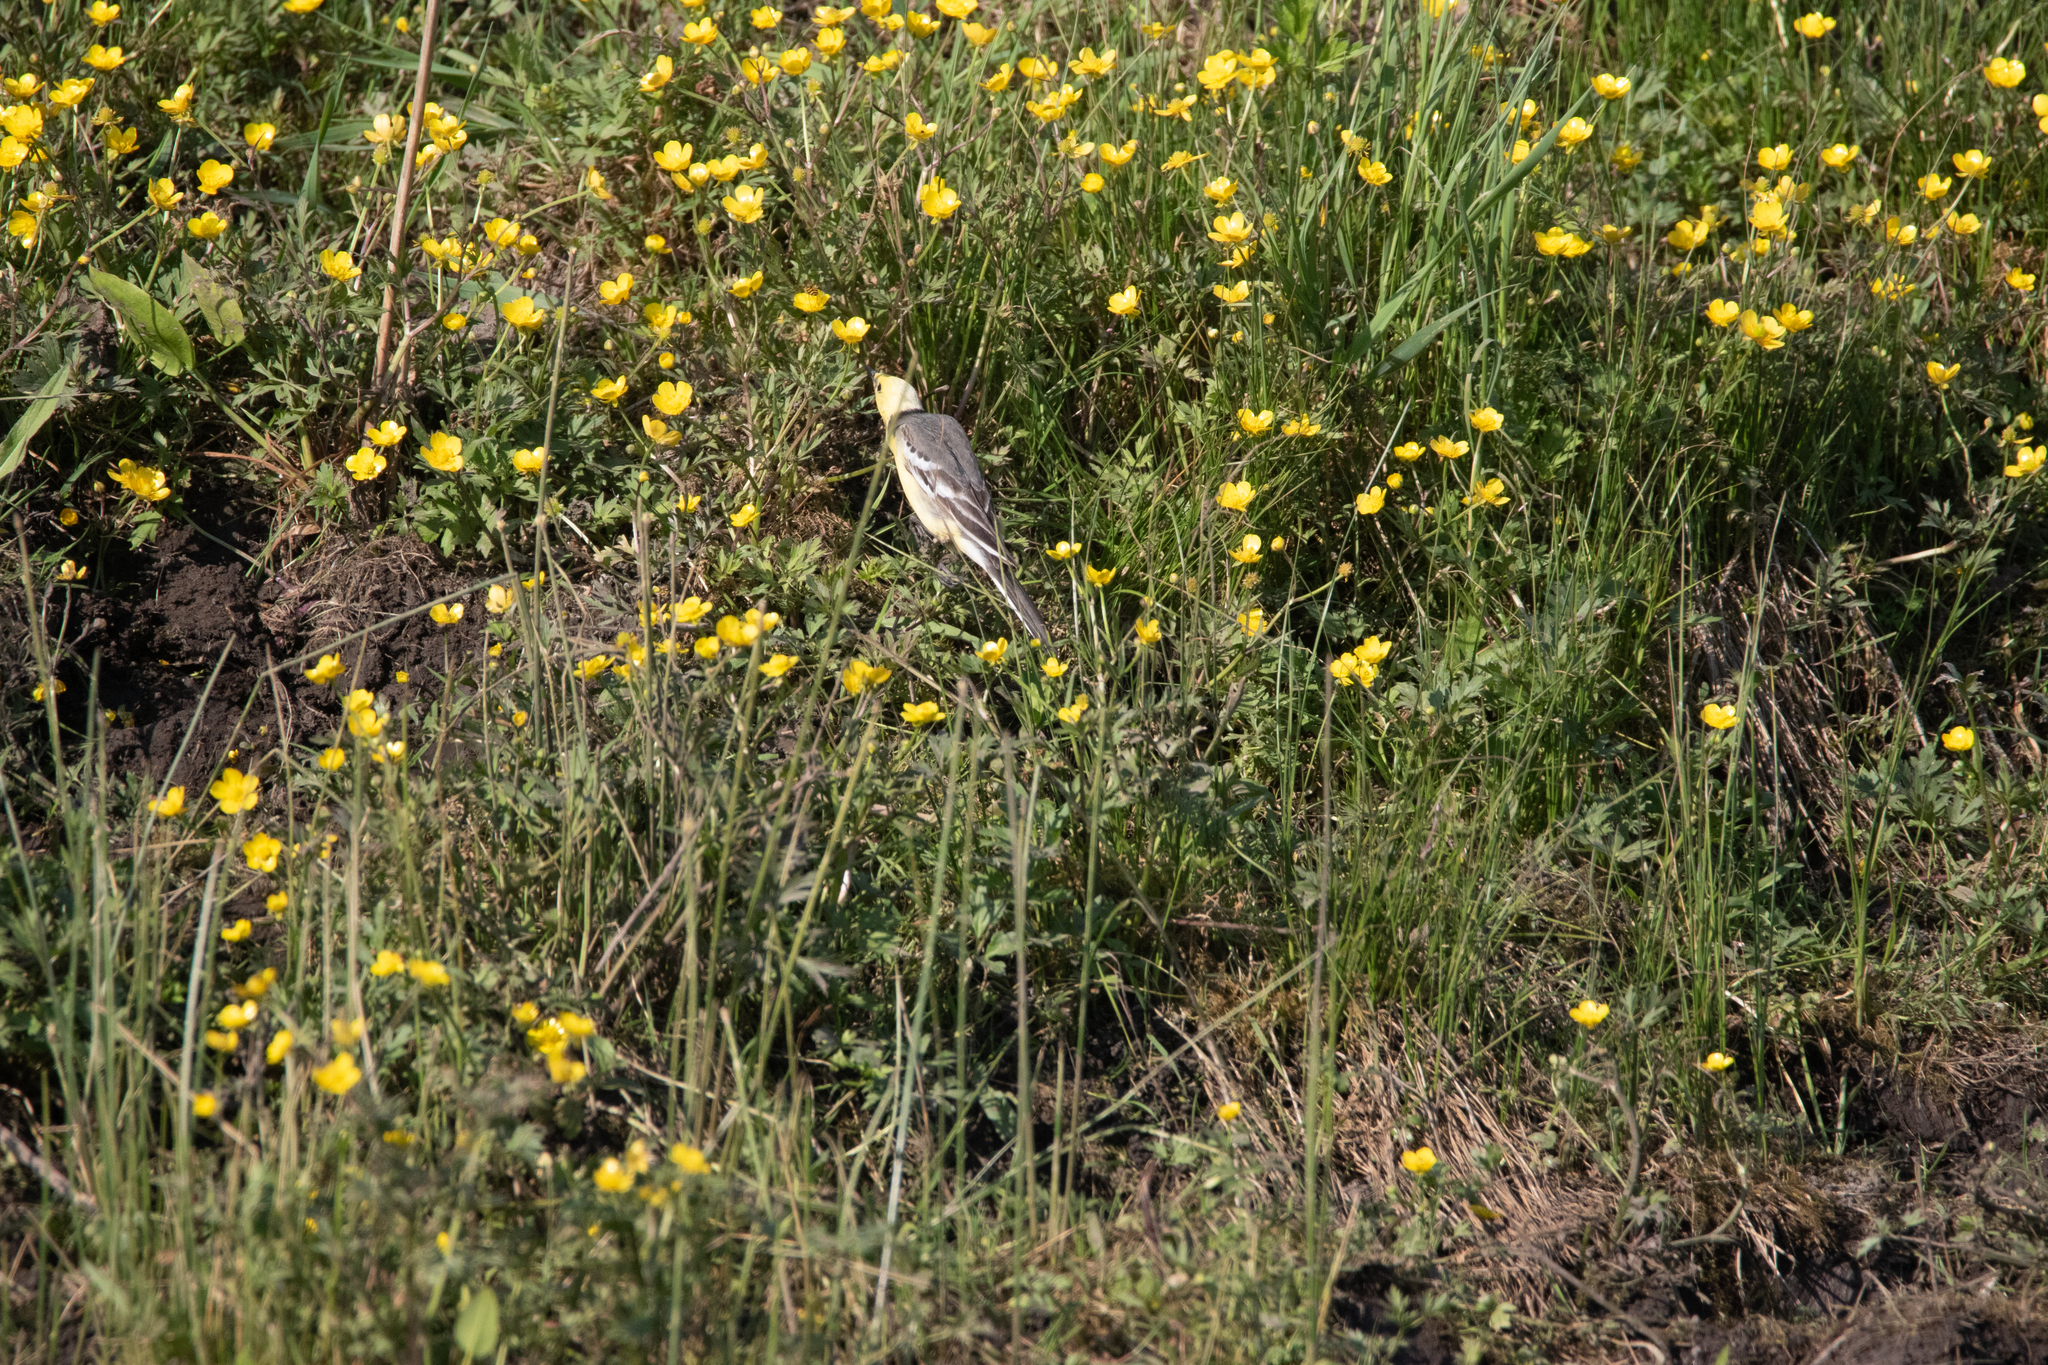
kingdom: Animalia
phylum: Chordata
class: Aves
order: Passeriformes
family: Motacillidae
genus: Motacilla
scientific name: Motacilla citreola
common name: Citrine wagtail
